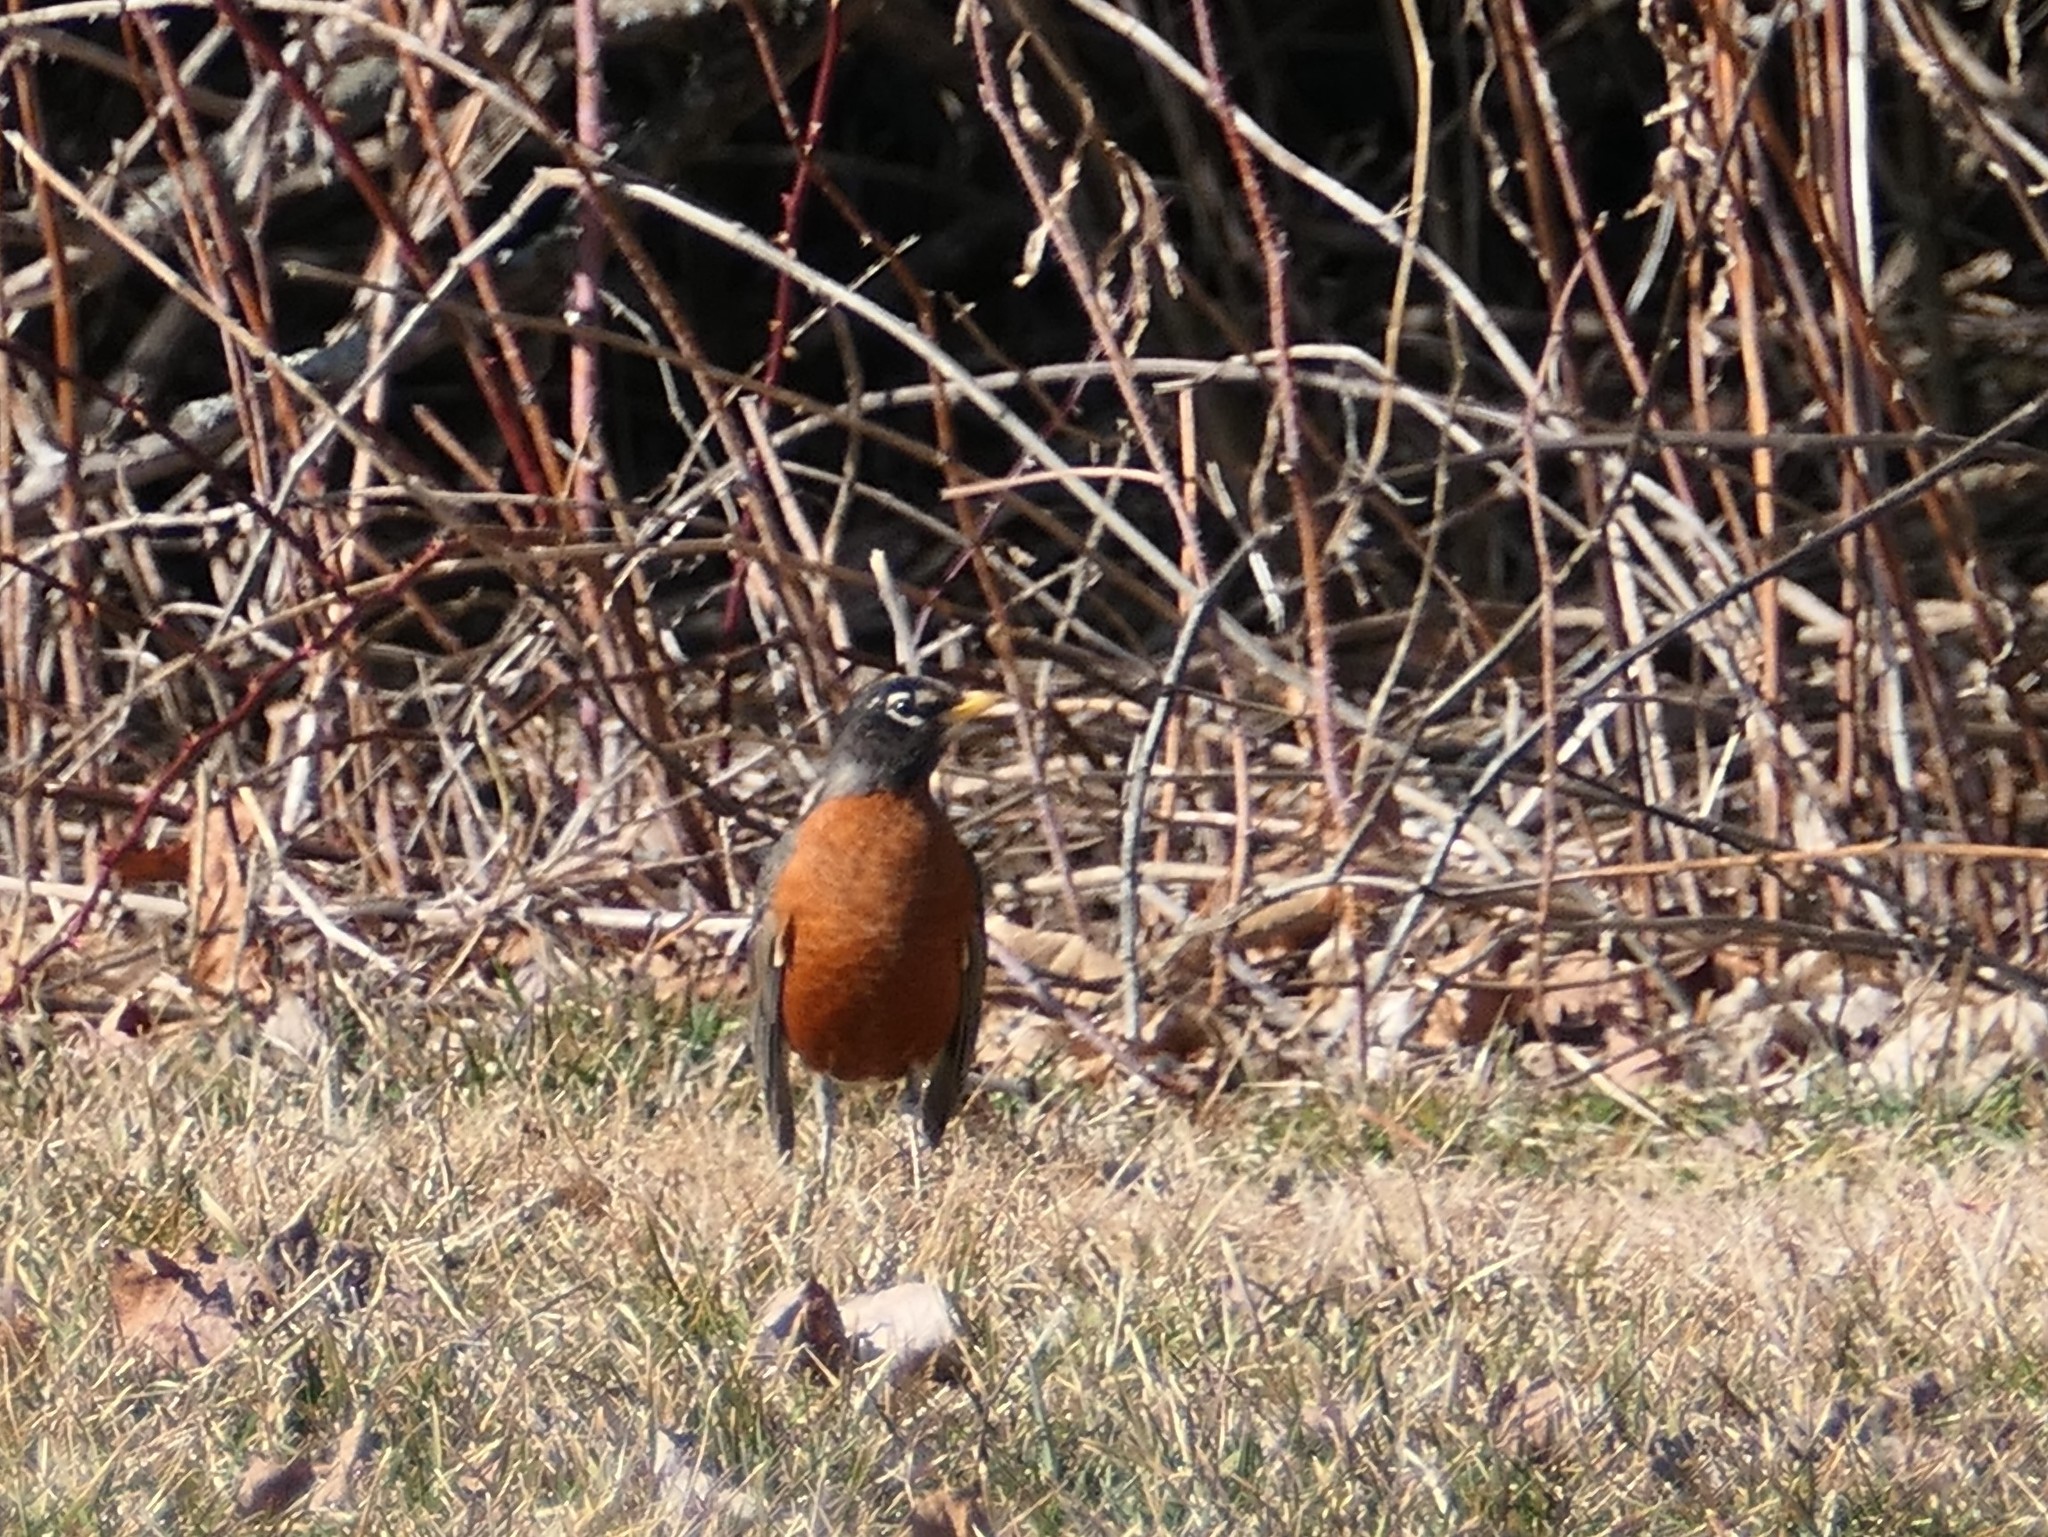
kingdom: Animalia
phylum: Chordata
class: Aves
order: Passeriformes
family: Turdidae
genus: Turdus
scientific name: Turdus migratorius
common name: American robin
